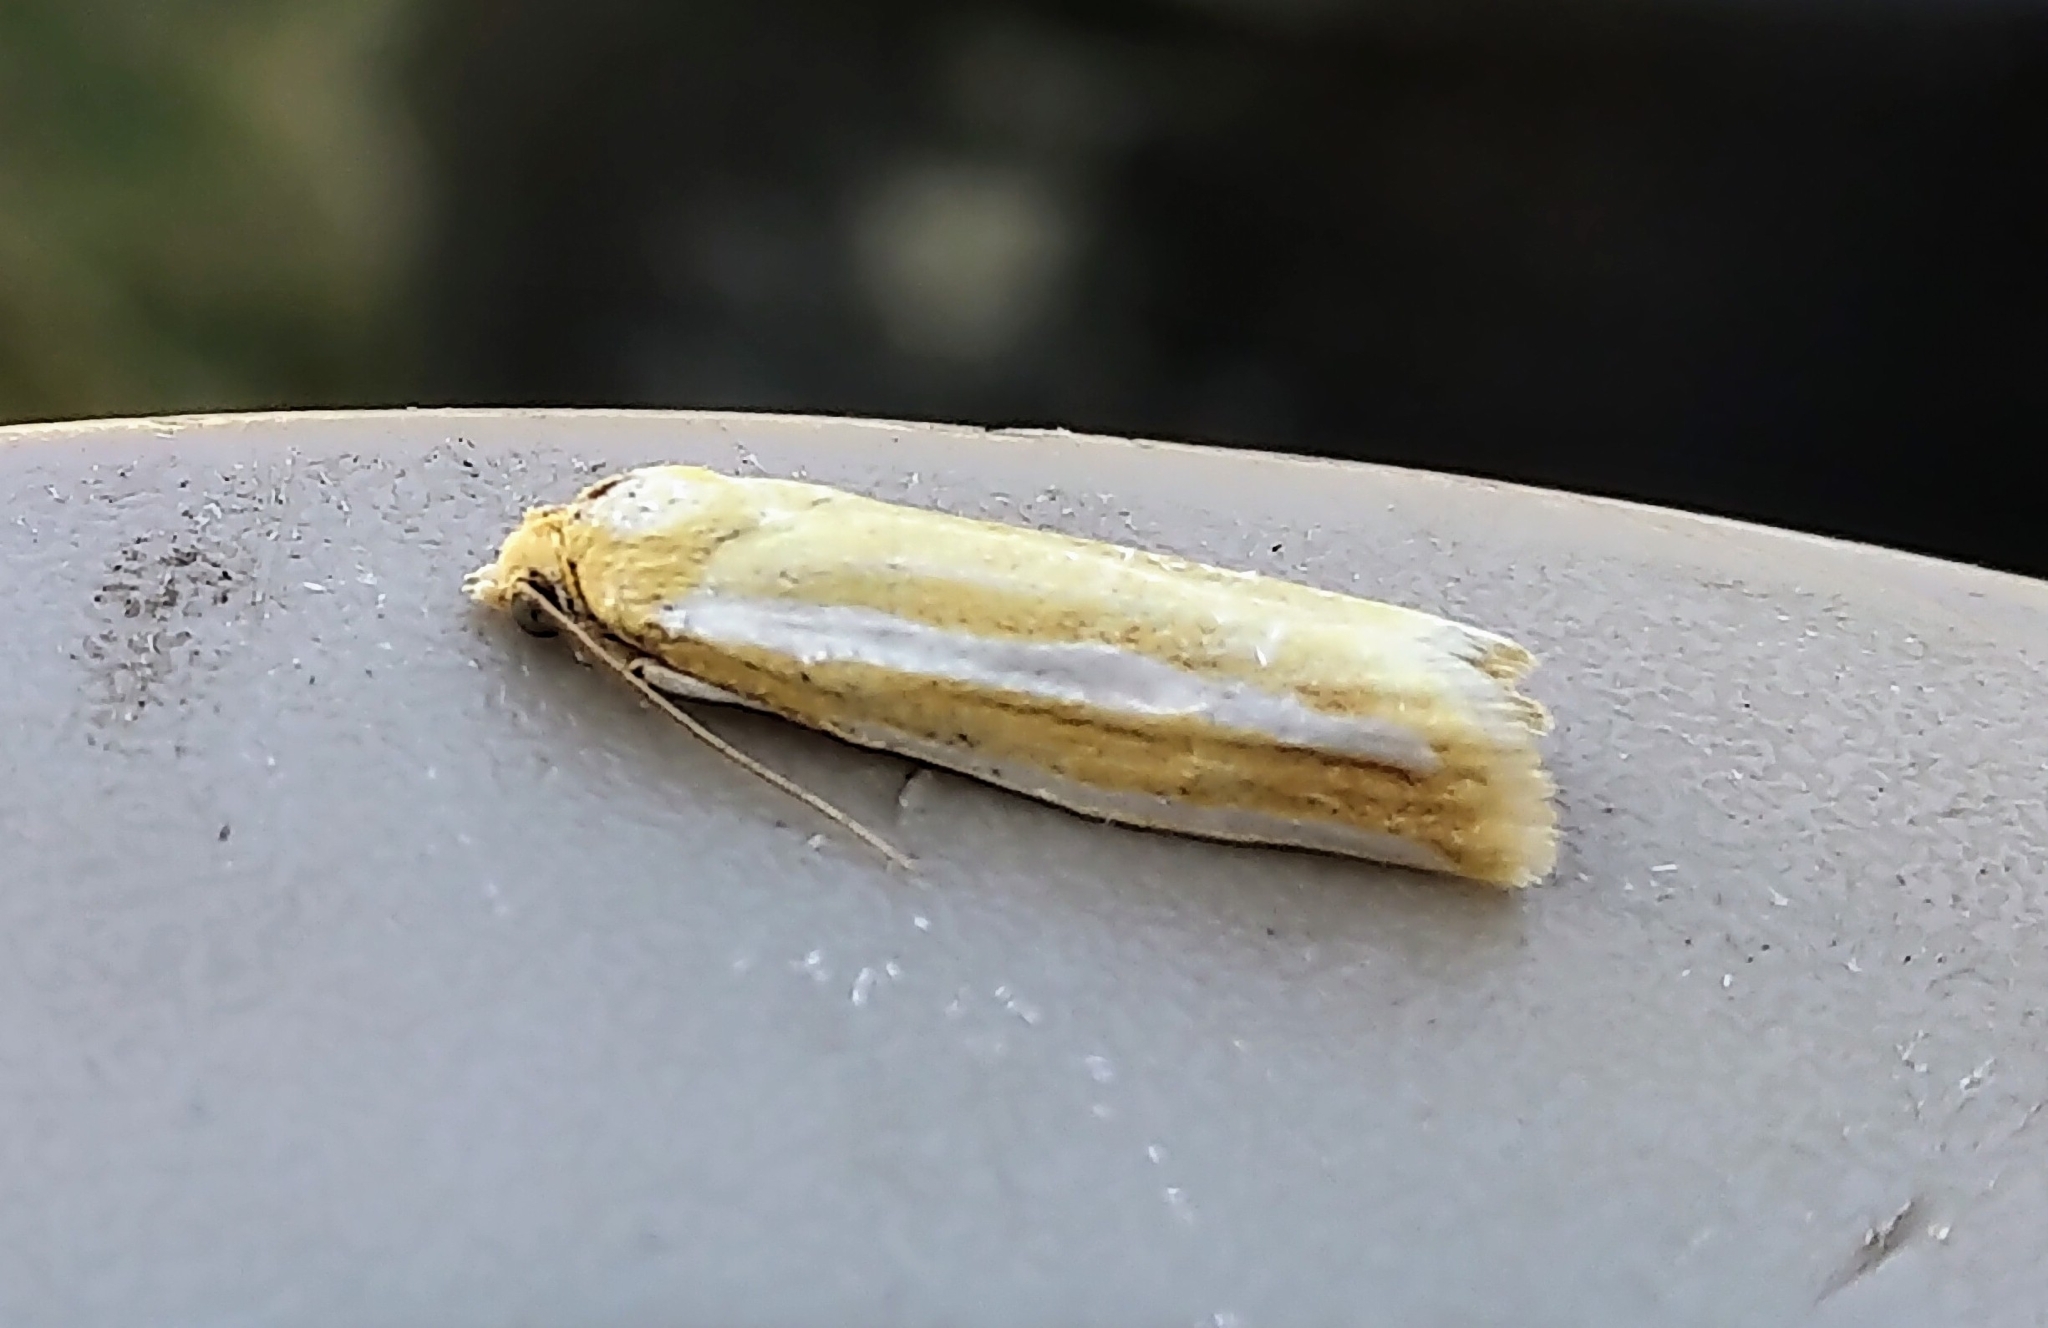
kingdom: Animalia
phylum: Arthropoda
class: Insecta
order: Lepidoptera
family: Tortricidae
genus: Pelochrista
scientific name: Pelochrista fandana
